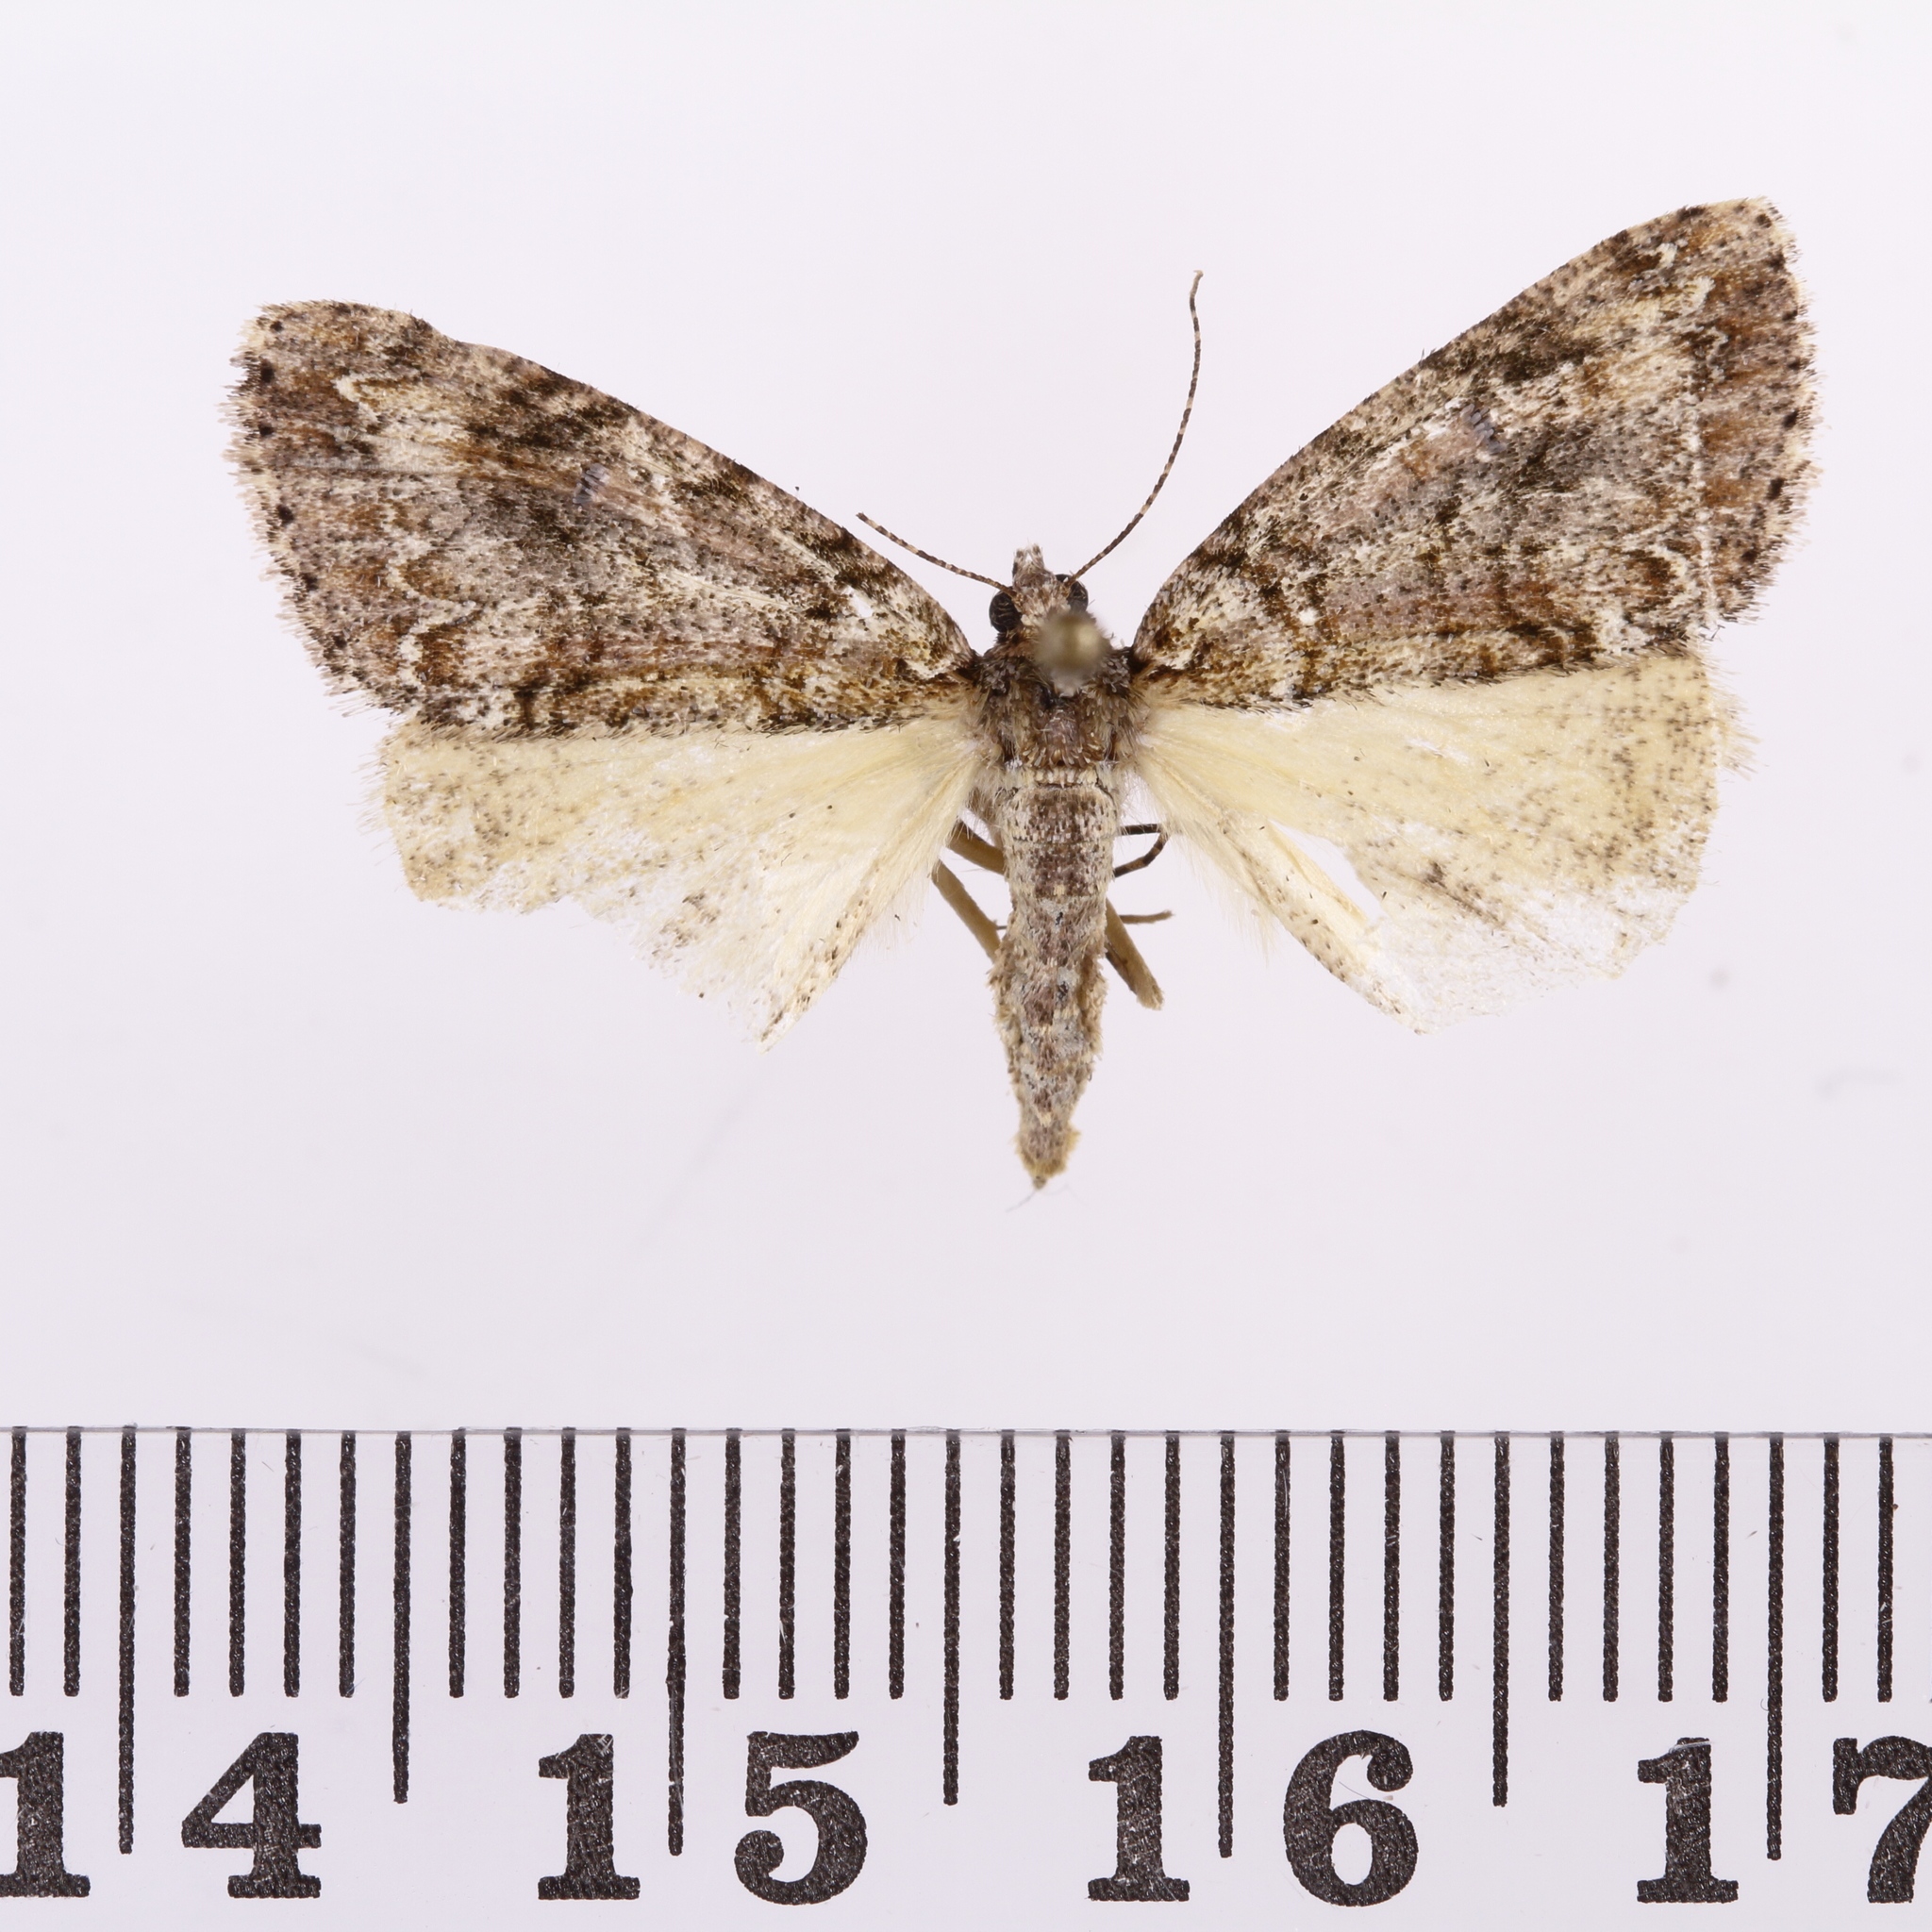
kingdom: Animalia
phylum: Arthropoda
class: Insecta
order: Lepidoptera
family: Geometridae
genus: Pseudocoremia
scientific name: Pseudocoremia suavis
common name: Common forest looper
